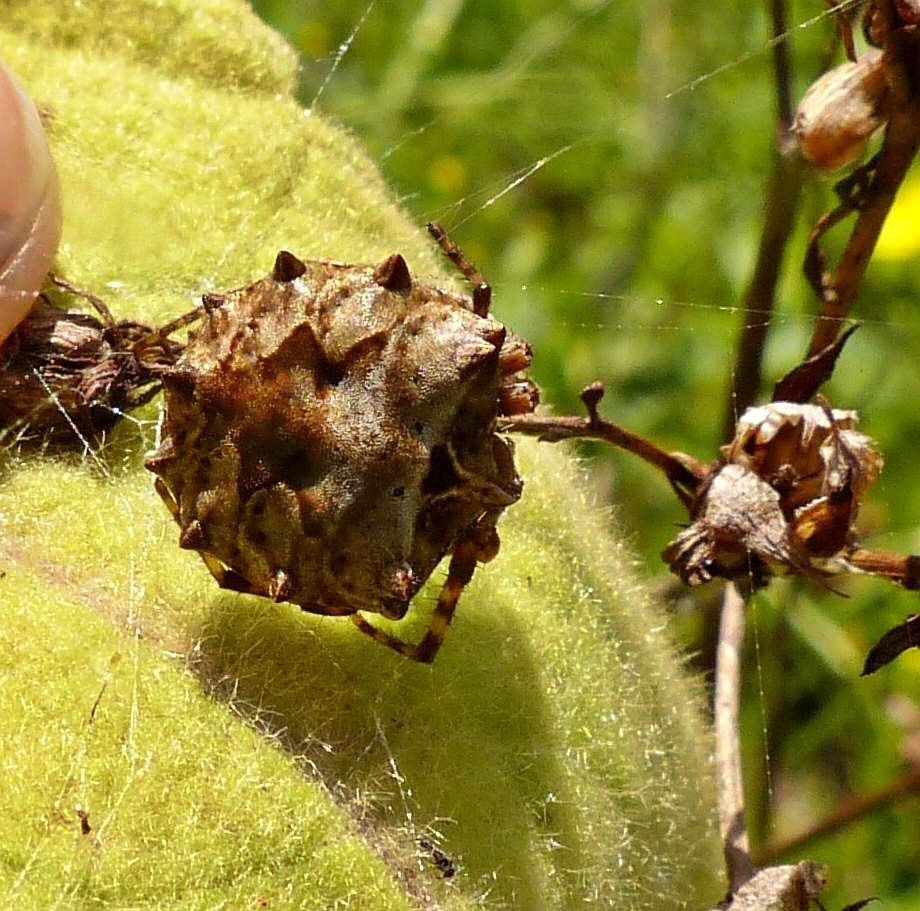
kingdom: Animalia
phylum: Arthropoda
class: Arachnida
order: Araneae
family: Araneidae
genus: Acanthepeira
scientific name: Acanthepeira stellata
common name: Starbellied orbweaver
